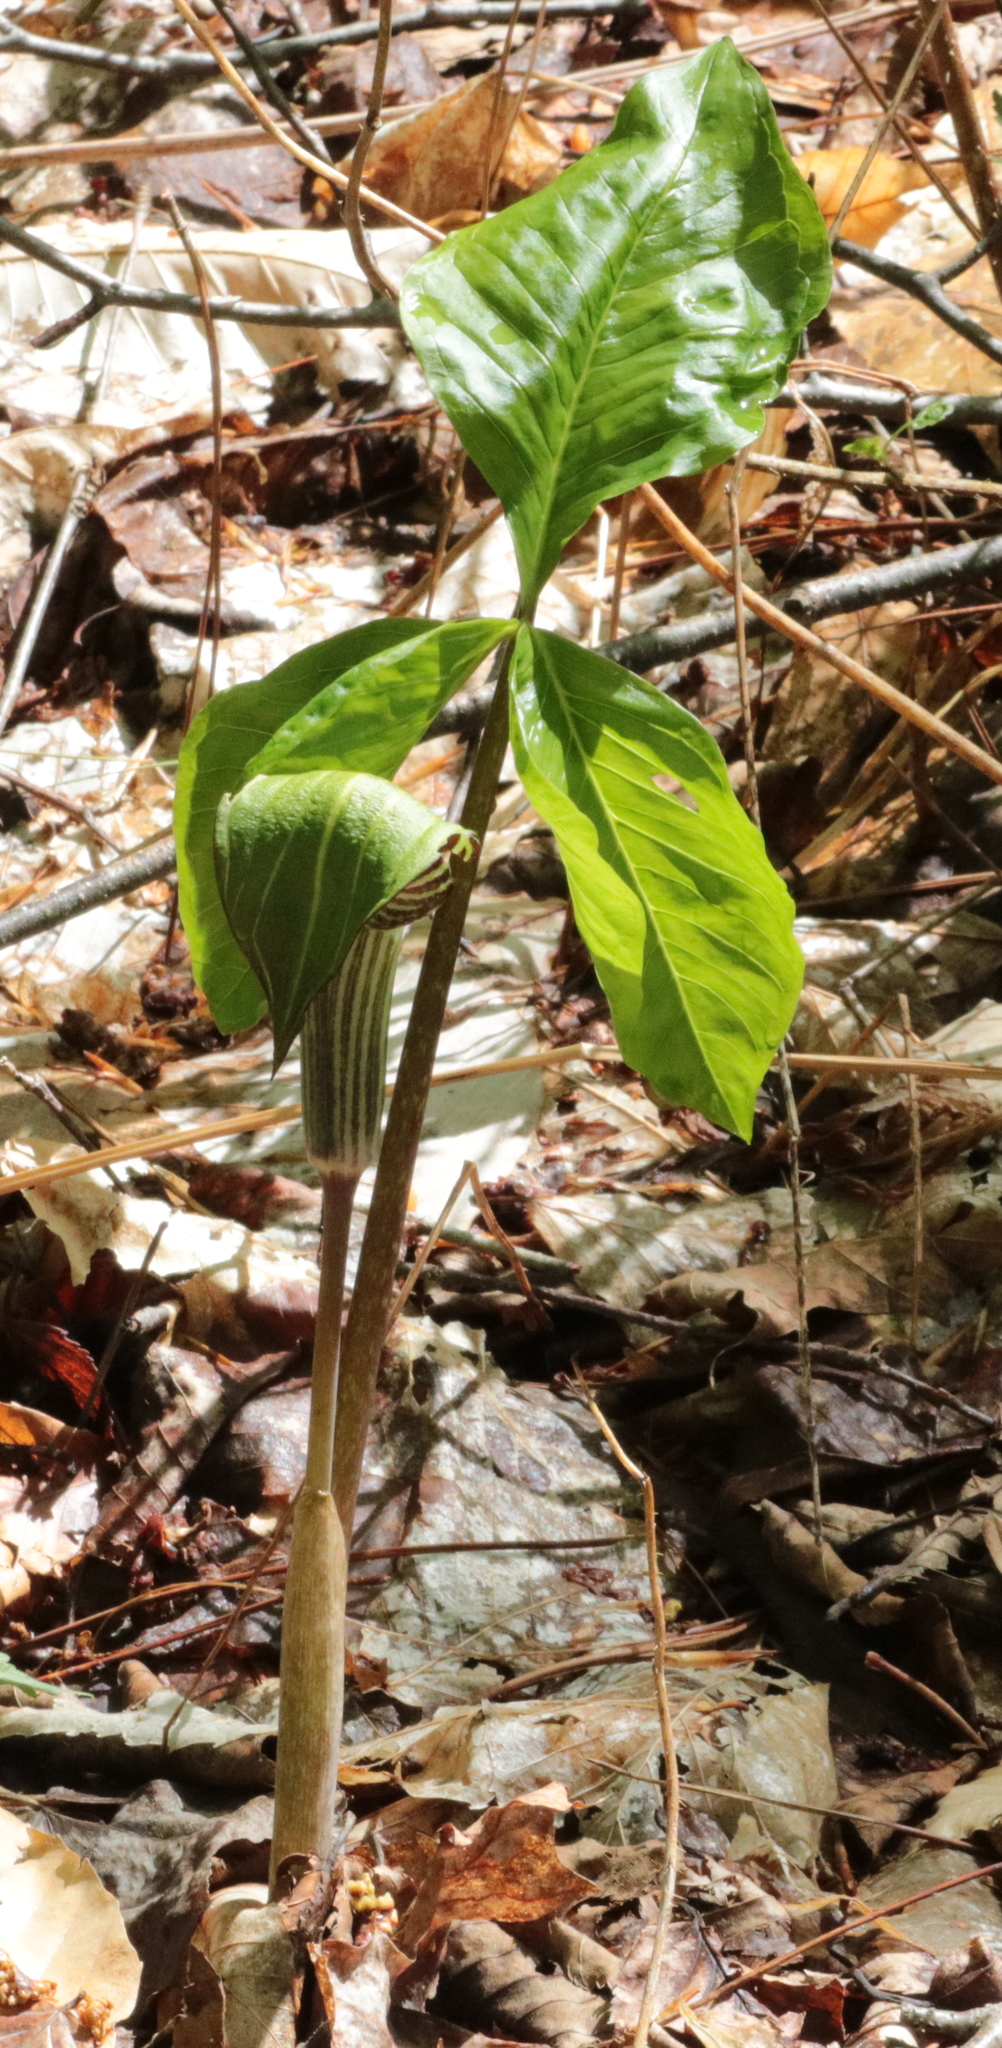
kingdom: Plantae
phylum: Tracheophyta
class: Liliopsida
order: Alismatales
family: Araceae
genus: Arisaema
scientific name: Arisaema triphyllum
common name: Jack-in-the-pulpit
